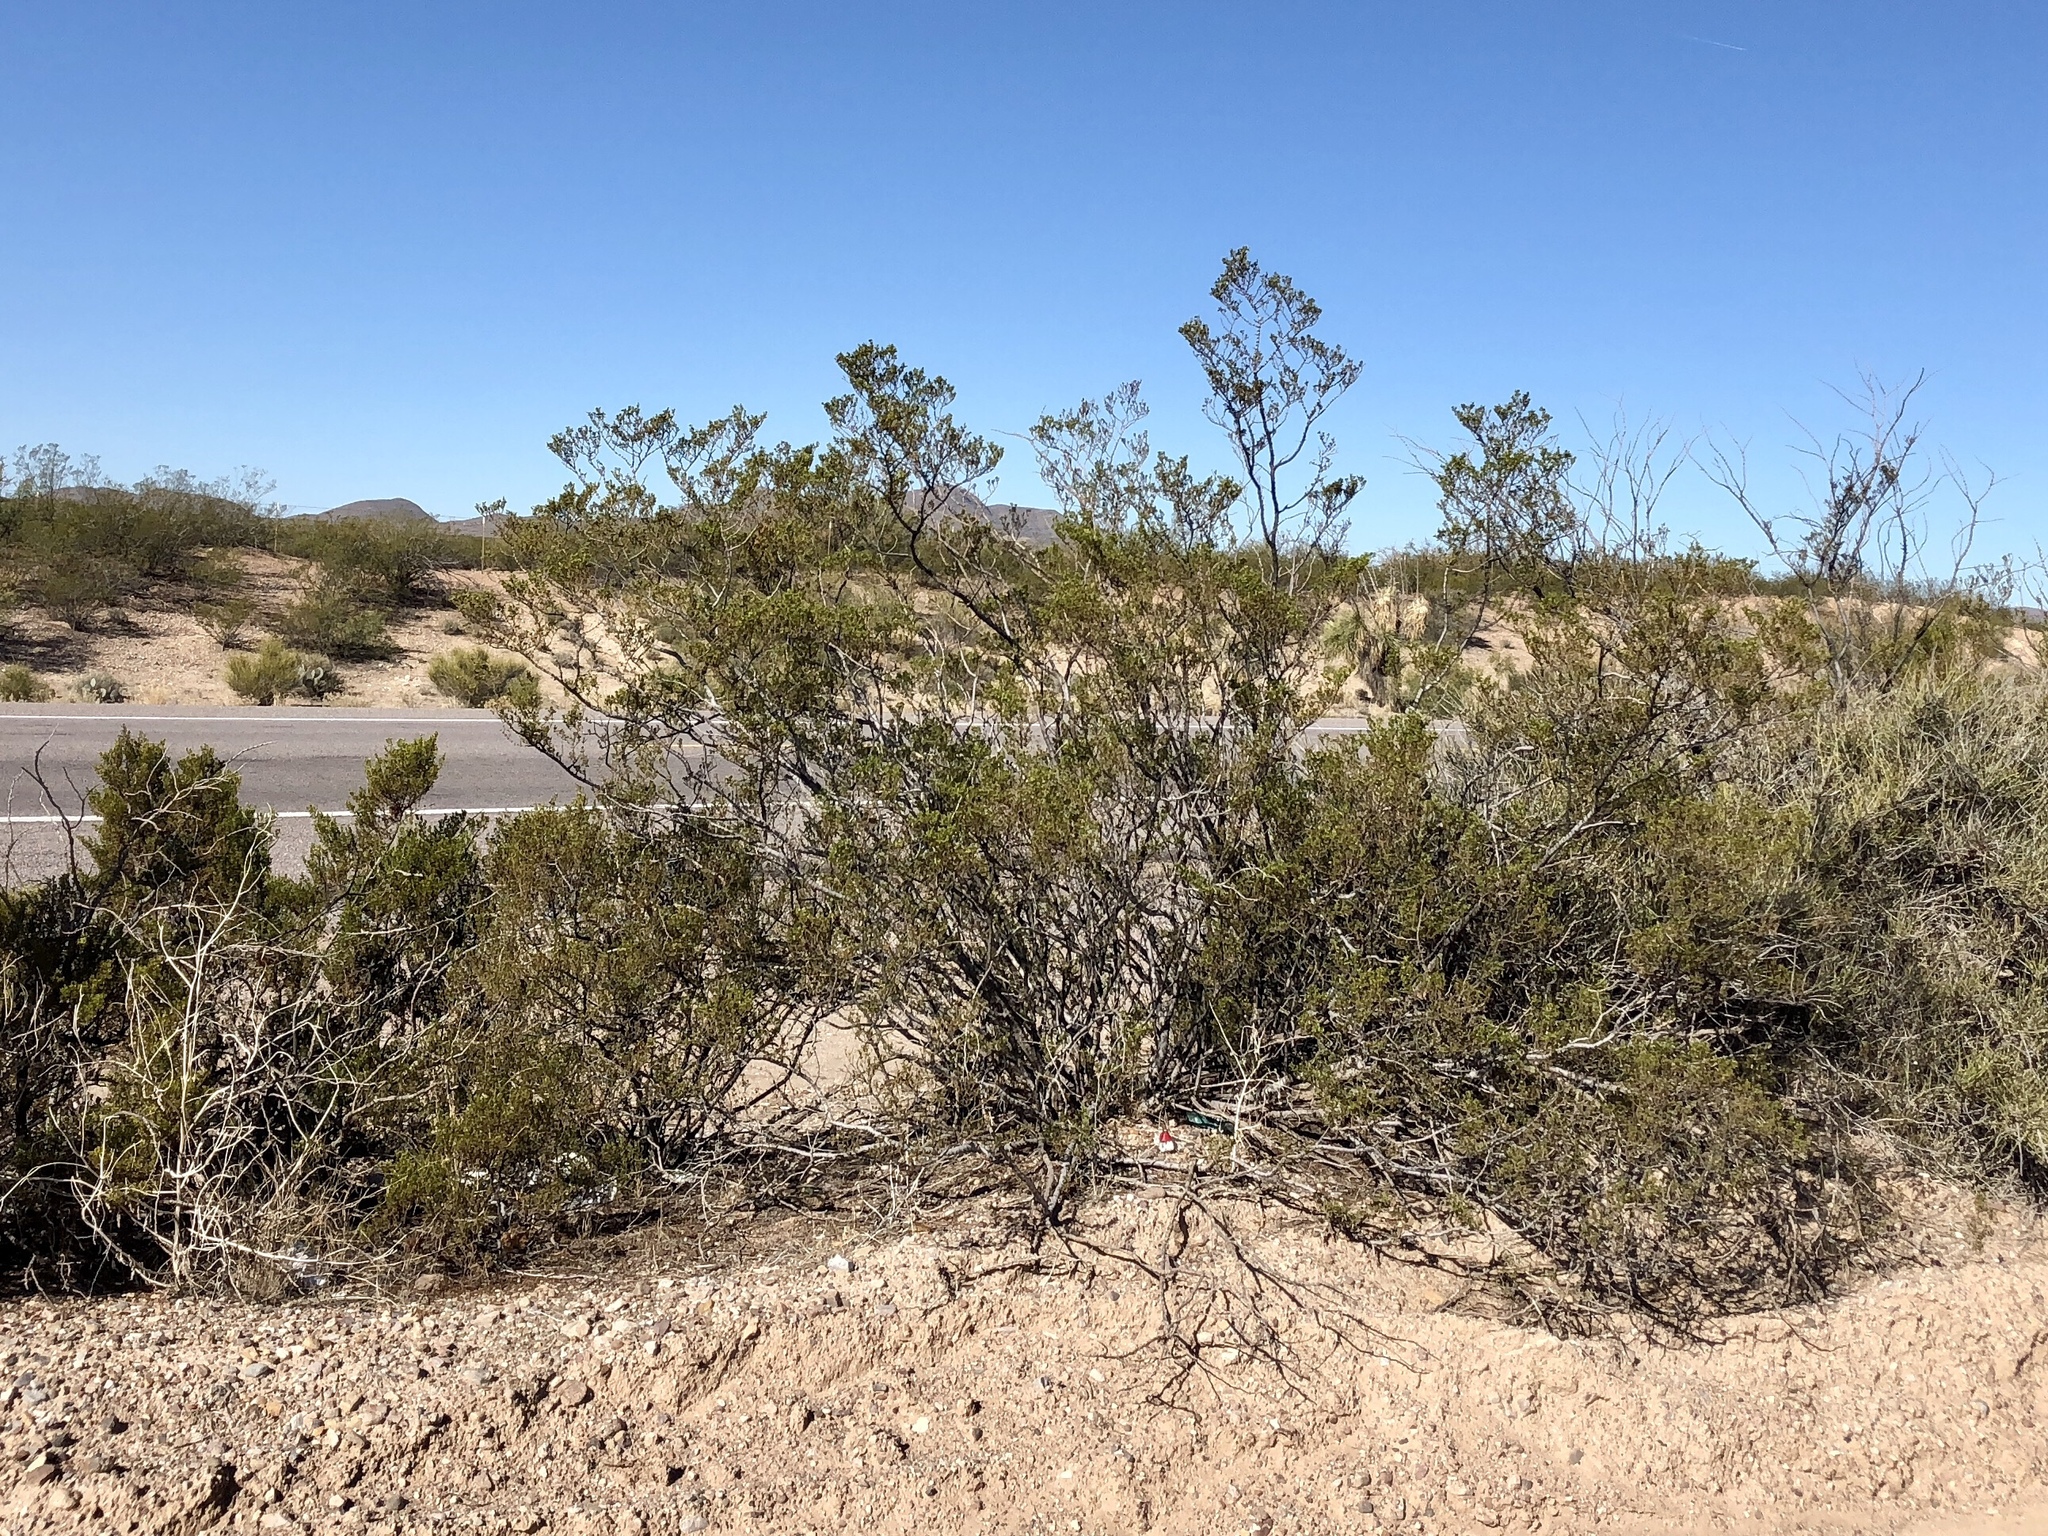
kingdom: Plantae
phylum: Tracheophyta
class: Magnoliopsida
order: Zygophyllales
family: Zygophyllaceae
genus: Larrea
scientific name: Larrea tridentata
